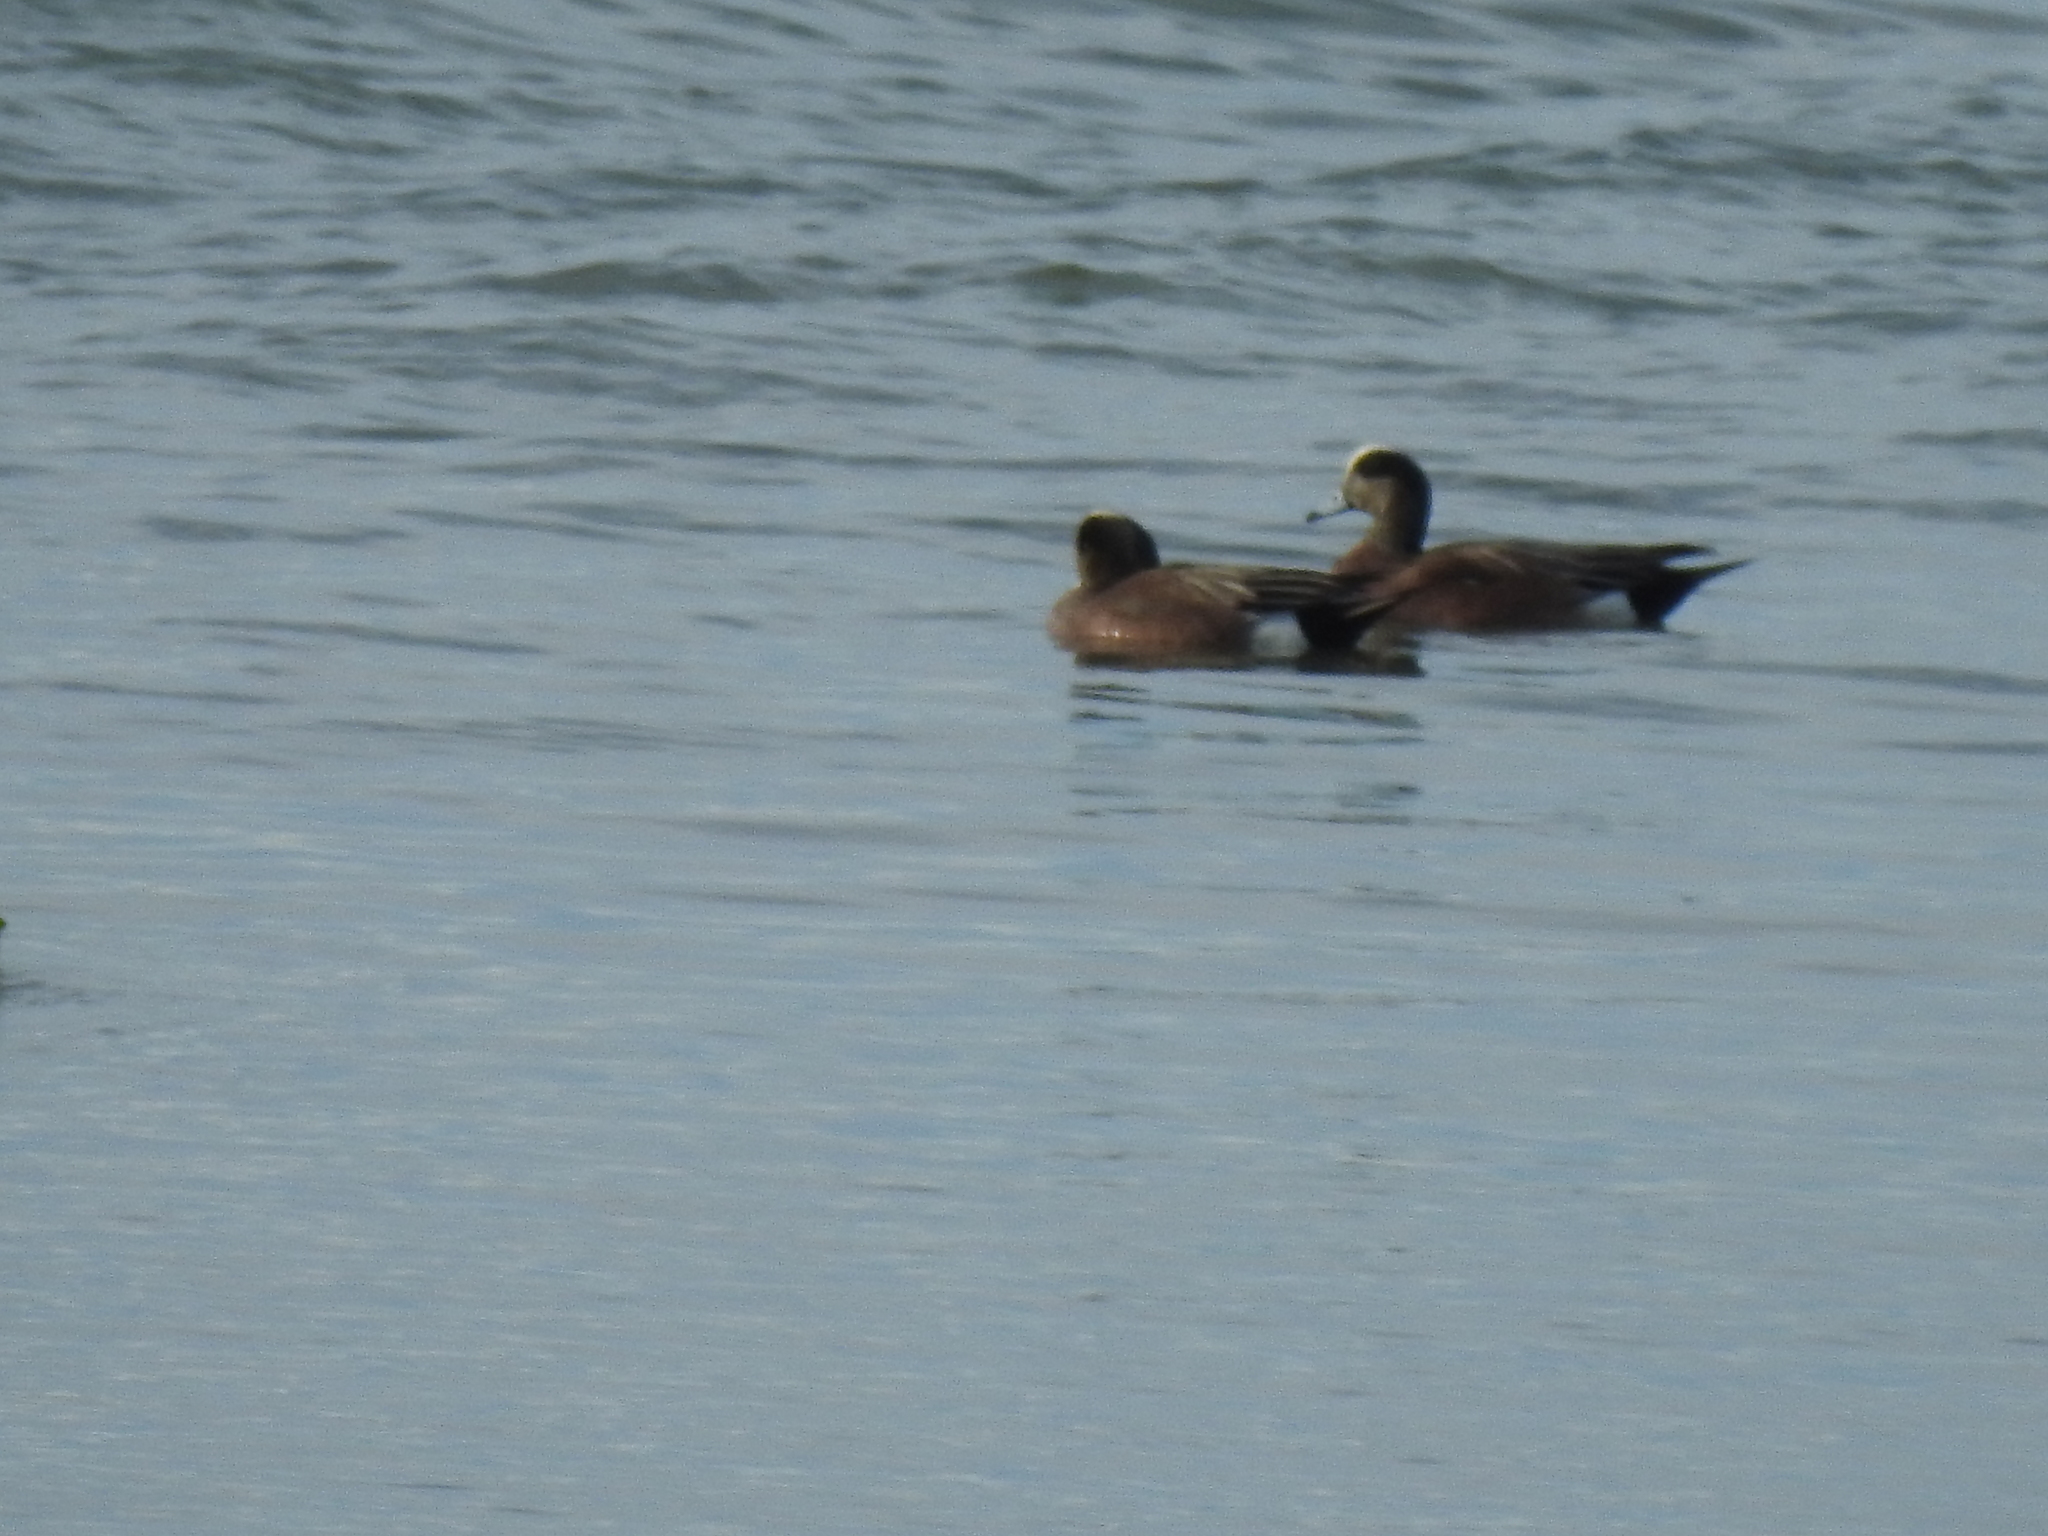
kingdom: Animalia
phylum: Chordata
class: Aves
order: Anseriformes
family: Anatidae
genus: Mareca
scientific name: Mareca americana
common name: American wigeon
